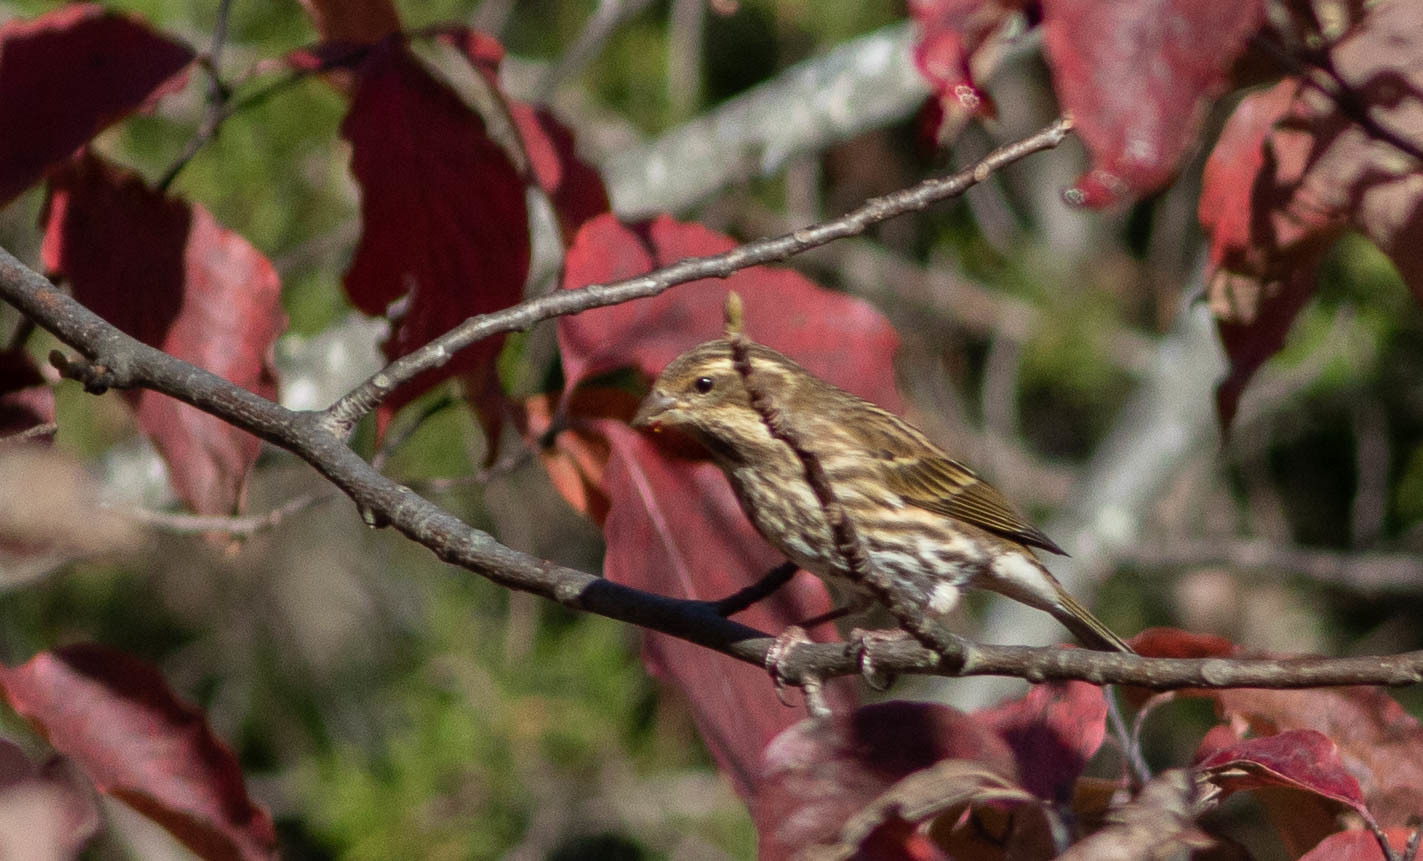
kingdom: Animalia
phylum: Chordata
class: Aves
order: Passeriformes
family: Fringillidae
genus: Haemorhous
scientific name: Haemorhous purpureus
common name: Purple finch
